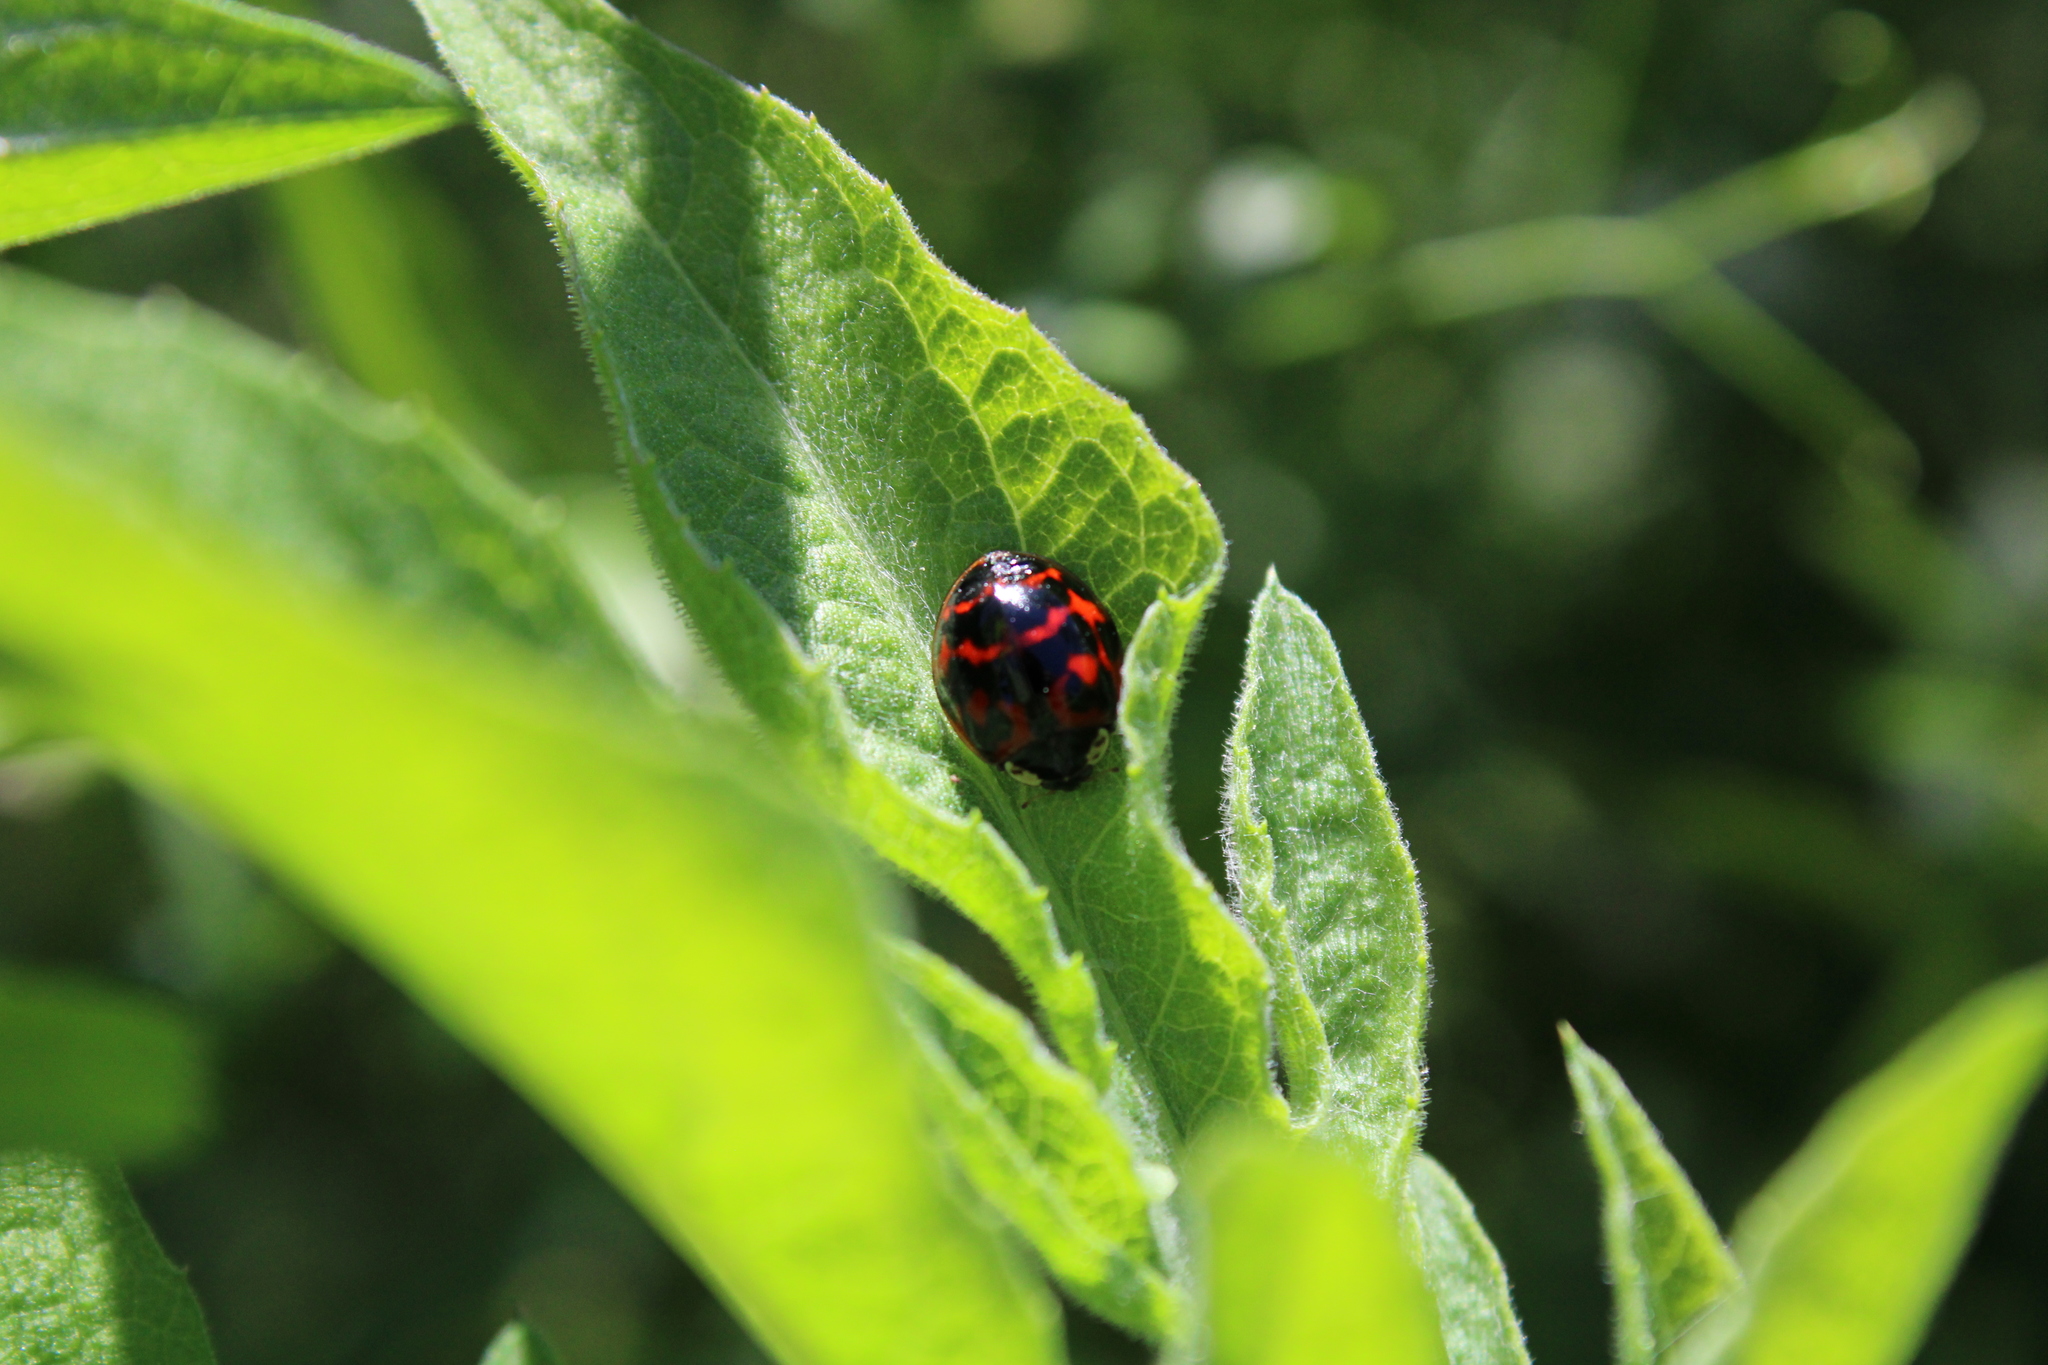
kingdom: Animalia
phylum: Arthropoda
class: Insecta
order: Coleoptera
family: Coccinellidae
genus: Harmonia
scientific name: Harmonia axyridis
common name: Harlequin ladybird
